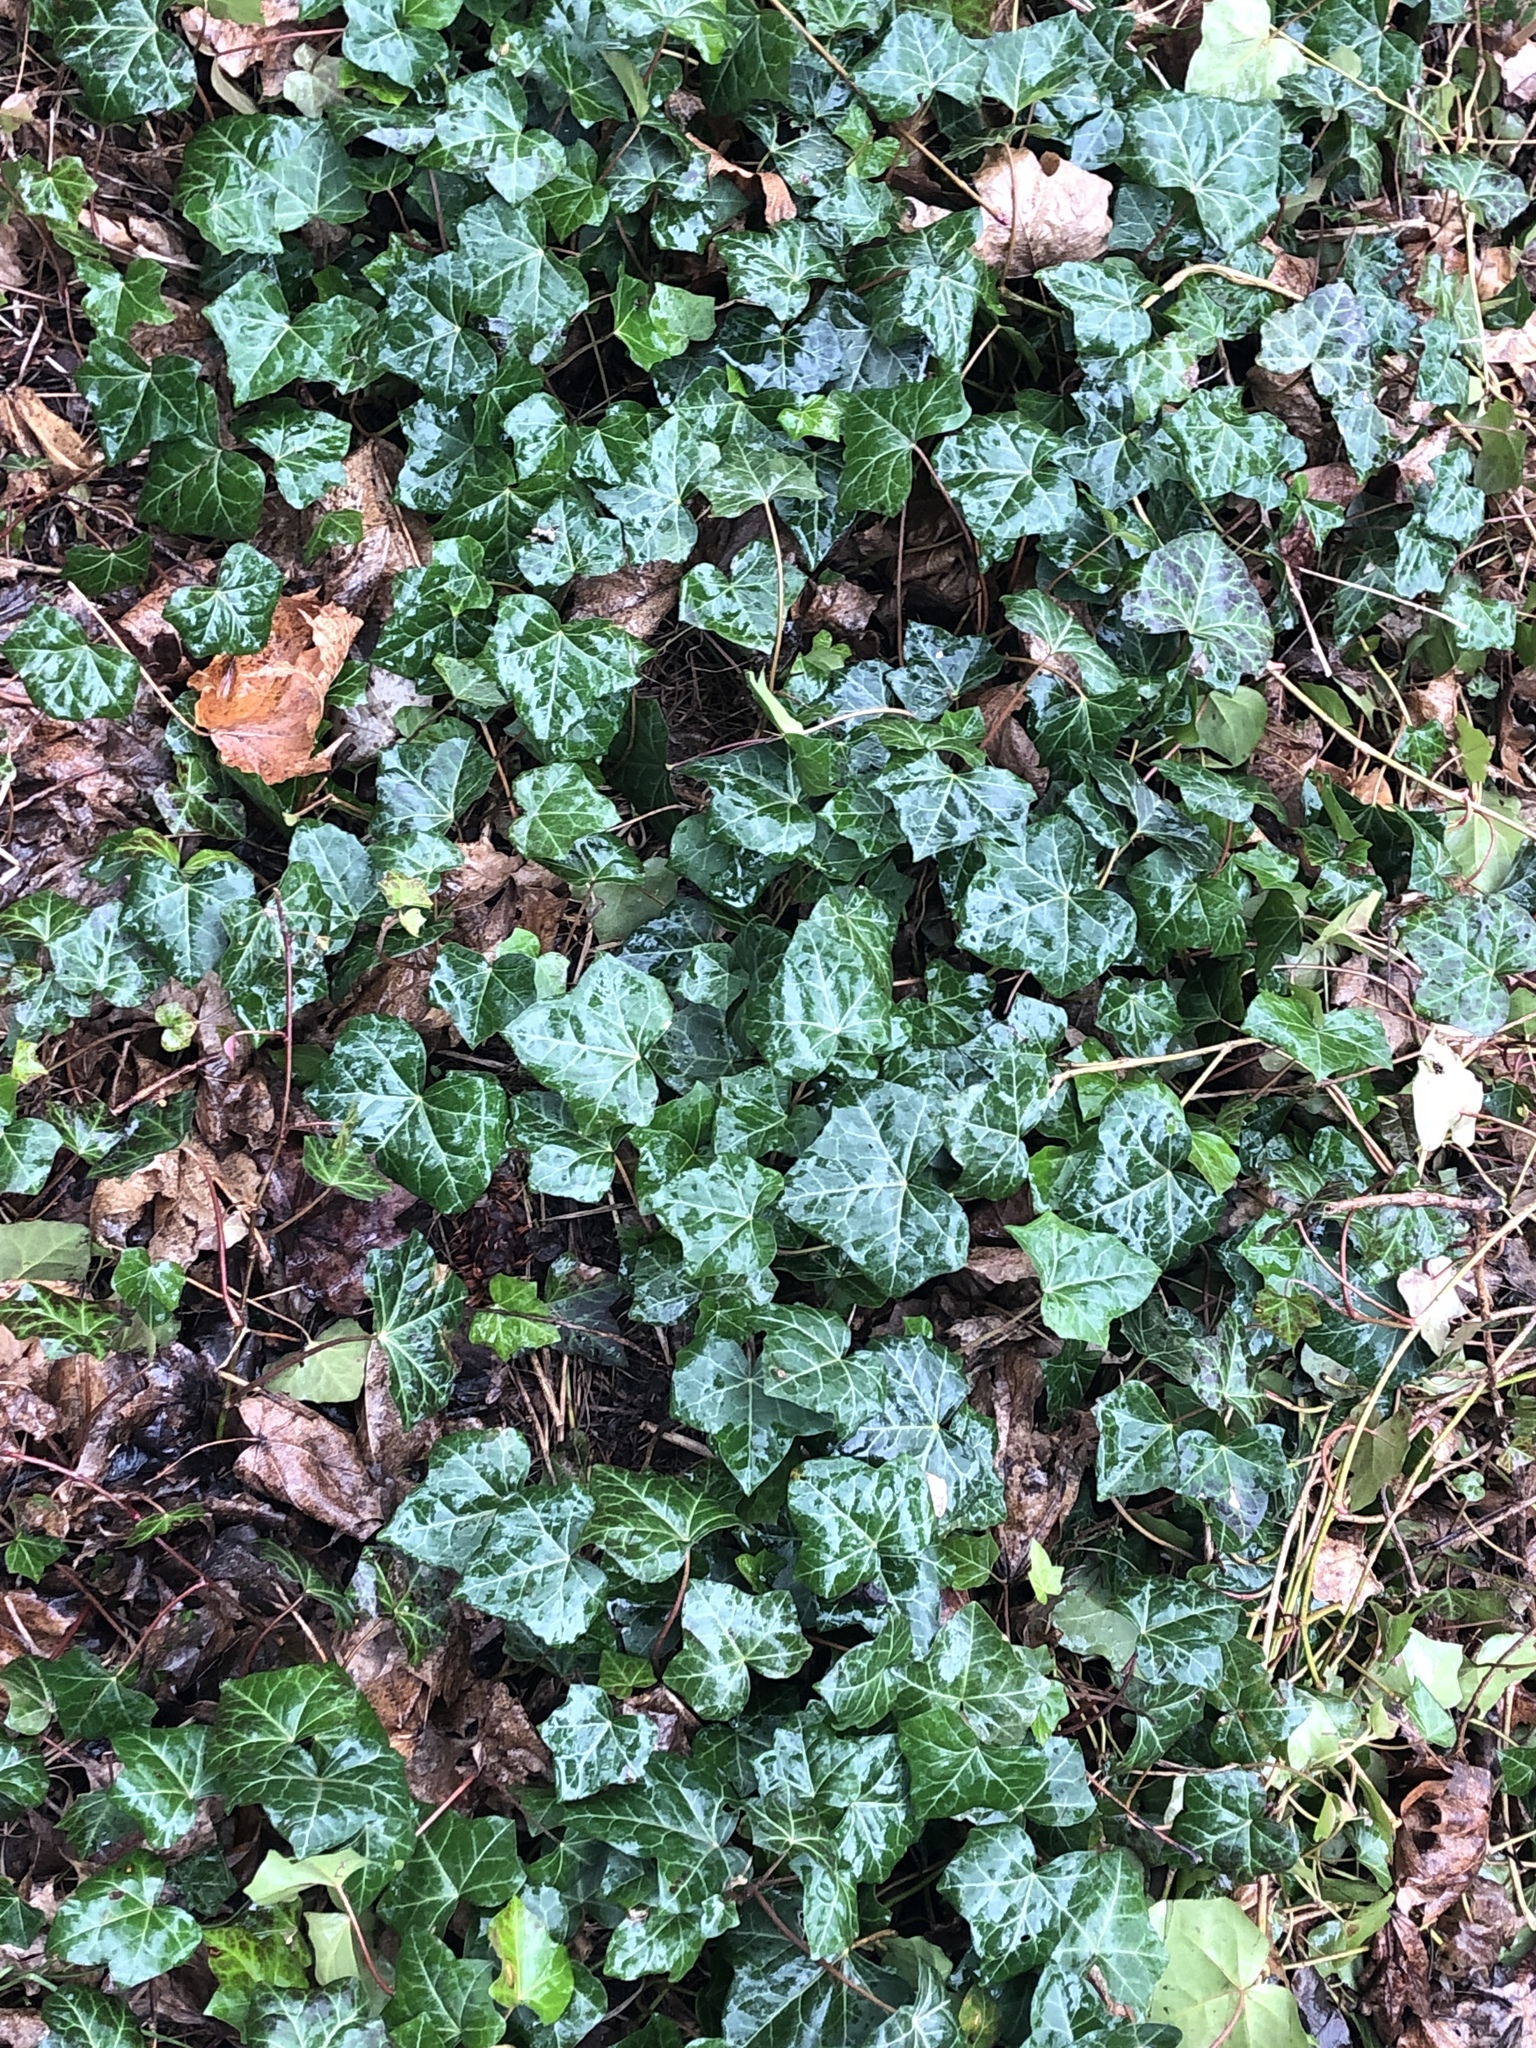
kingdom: Plantae
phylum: Tracheophyta
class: Magnoliopsida
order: Apiales
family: Araliaceae
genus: Hedera
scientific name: Hedera helix
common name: Ivy
